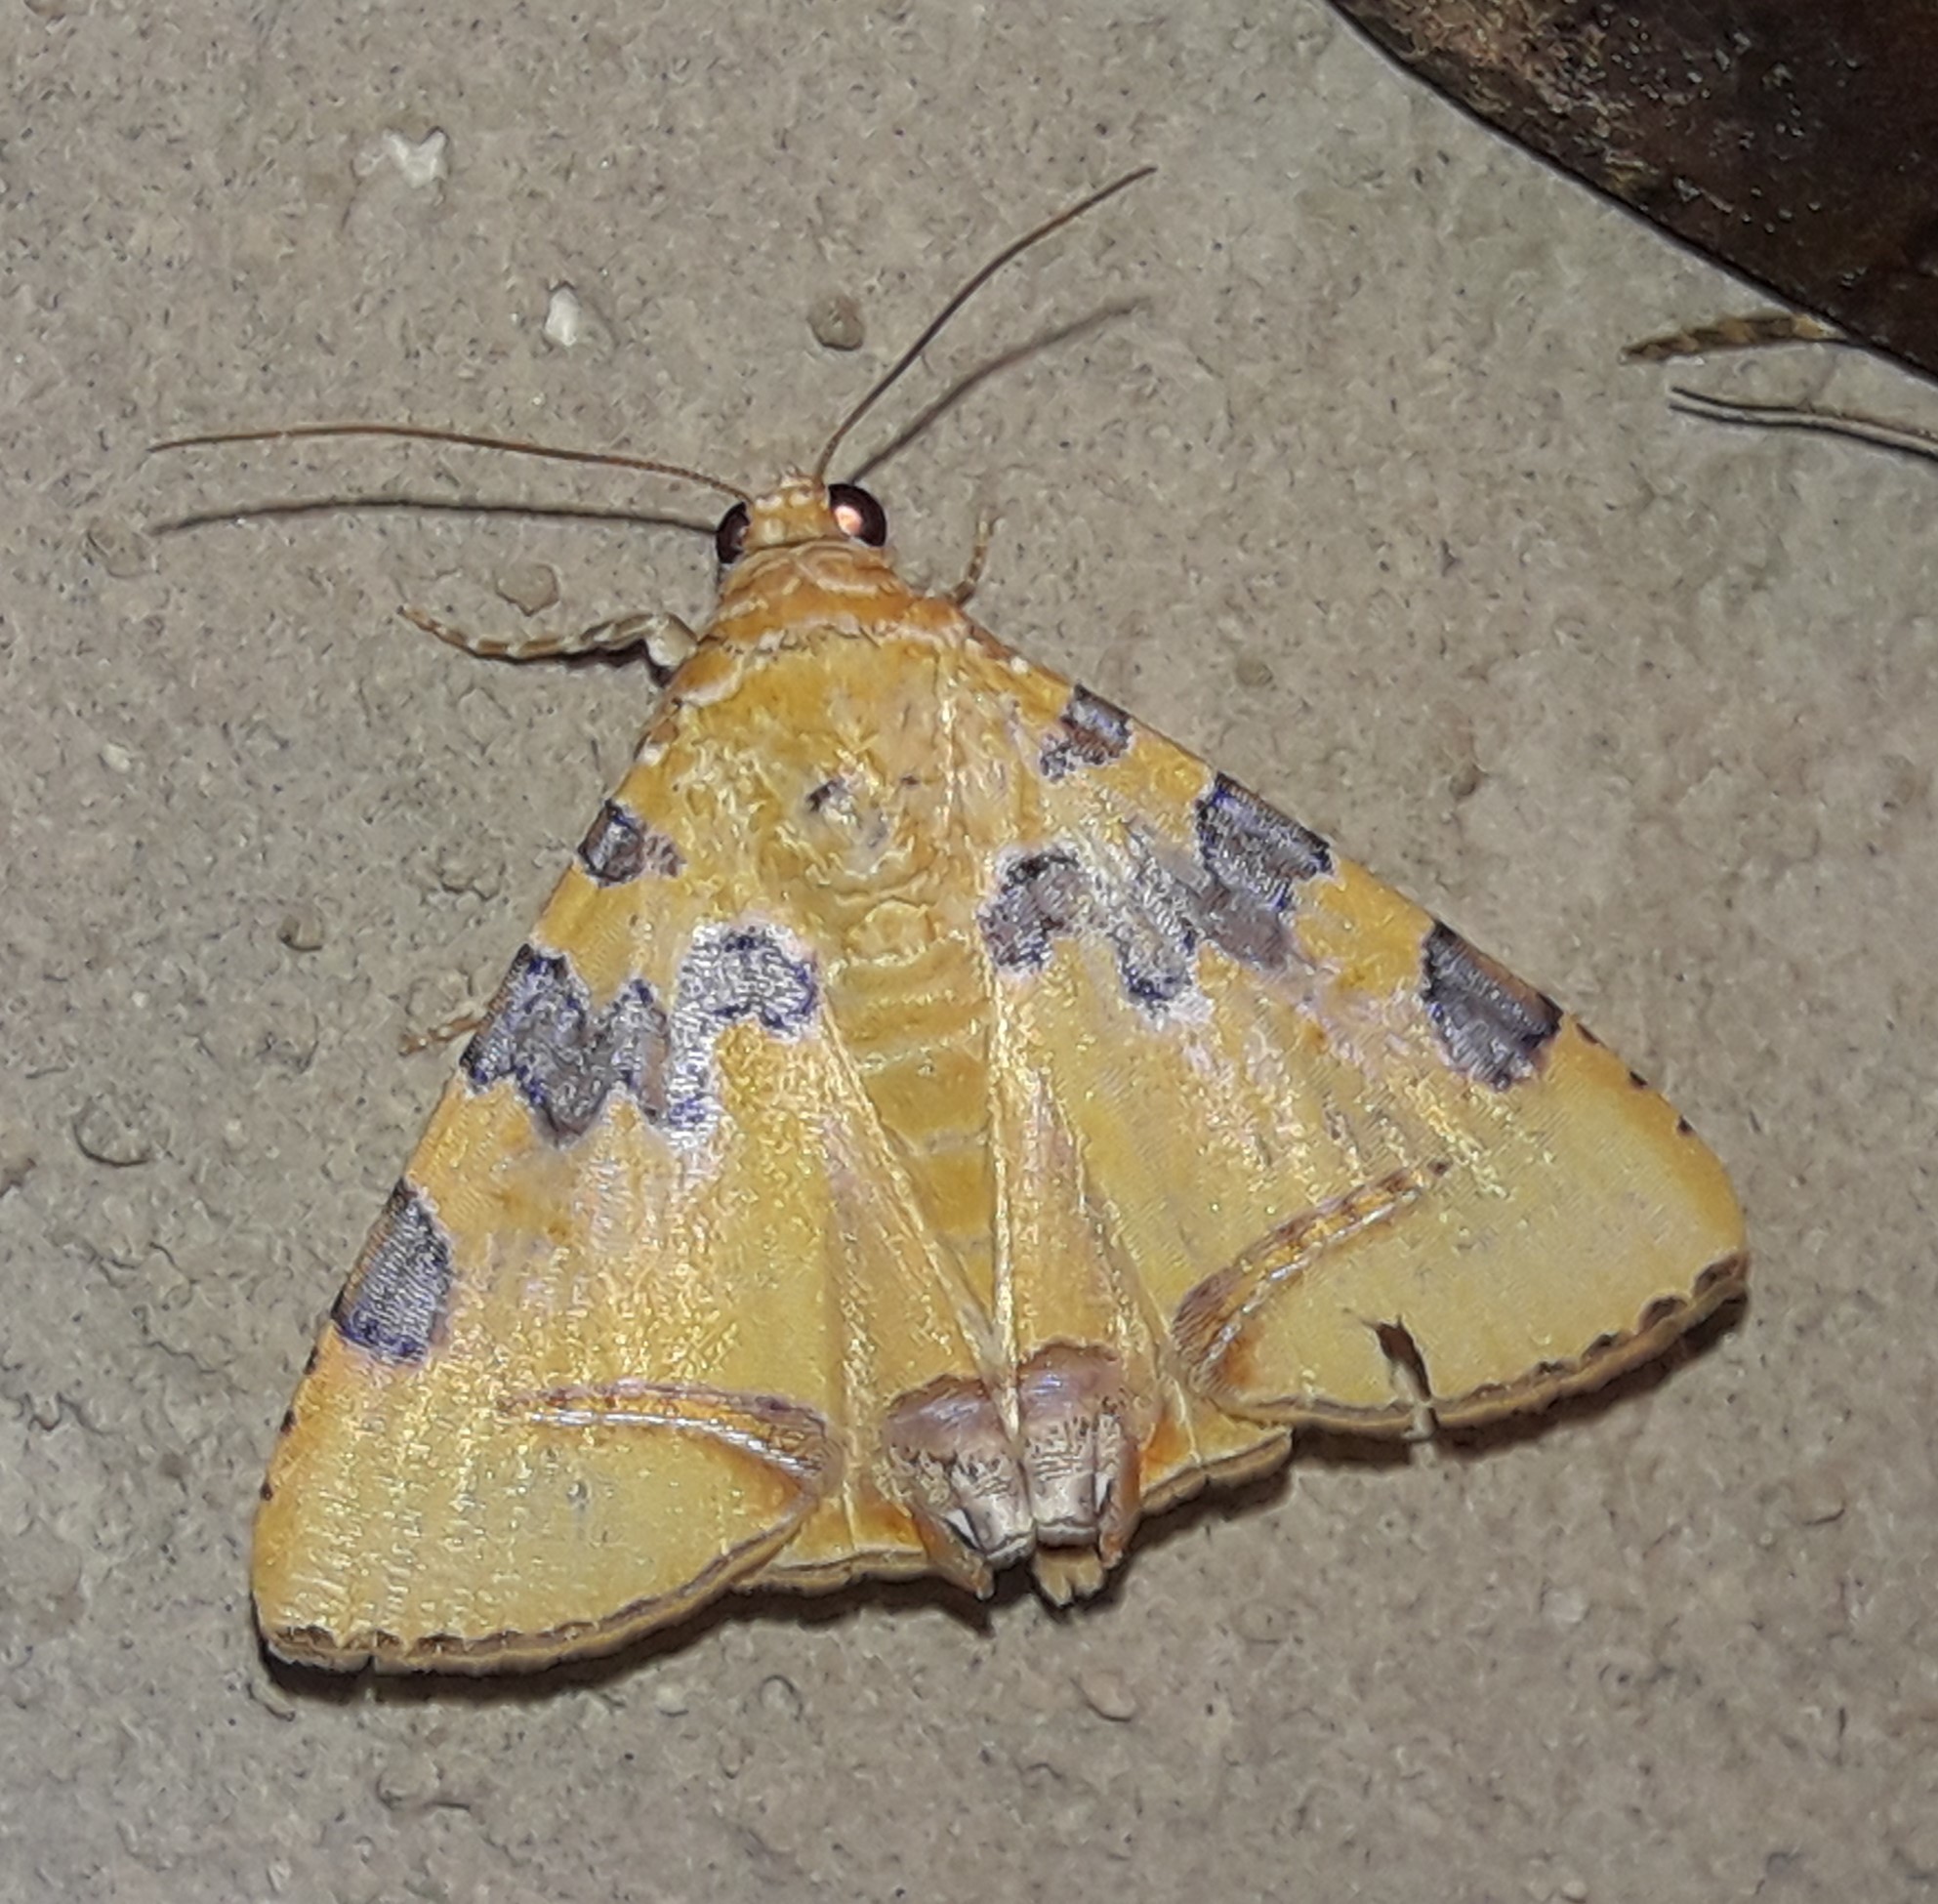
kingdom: Animalia
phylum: Arthropoda
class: Insecta
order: Lepidoptera
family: Erebidae
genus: Eulepidotis
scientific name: Eulepidotis hermura
